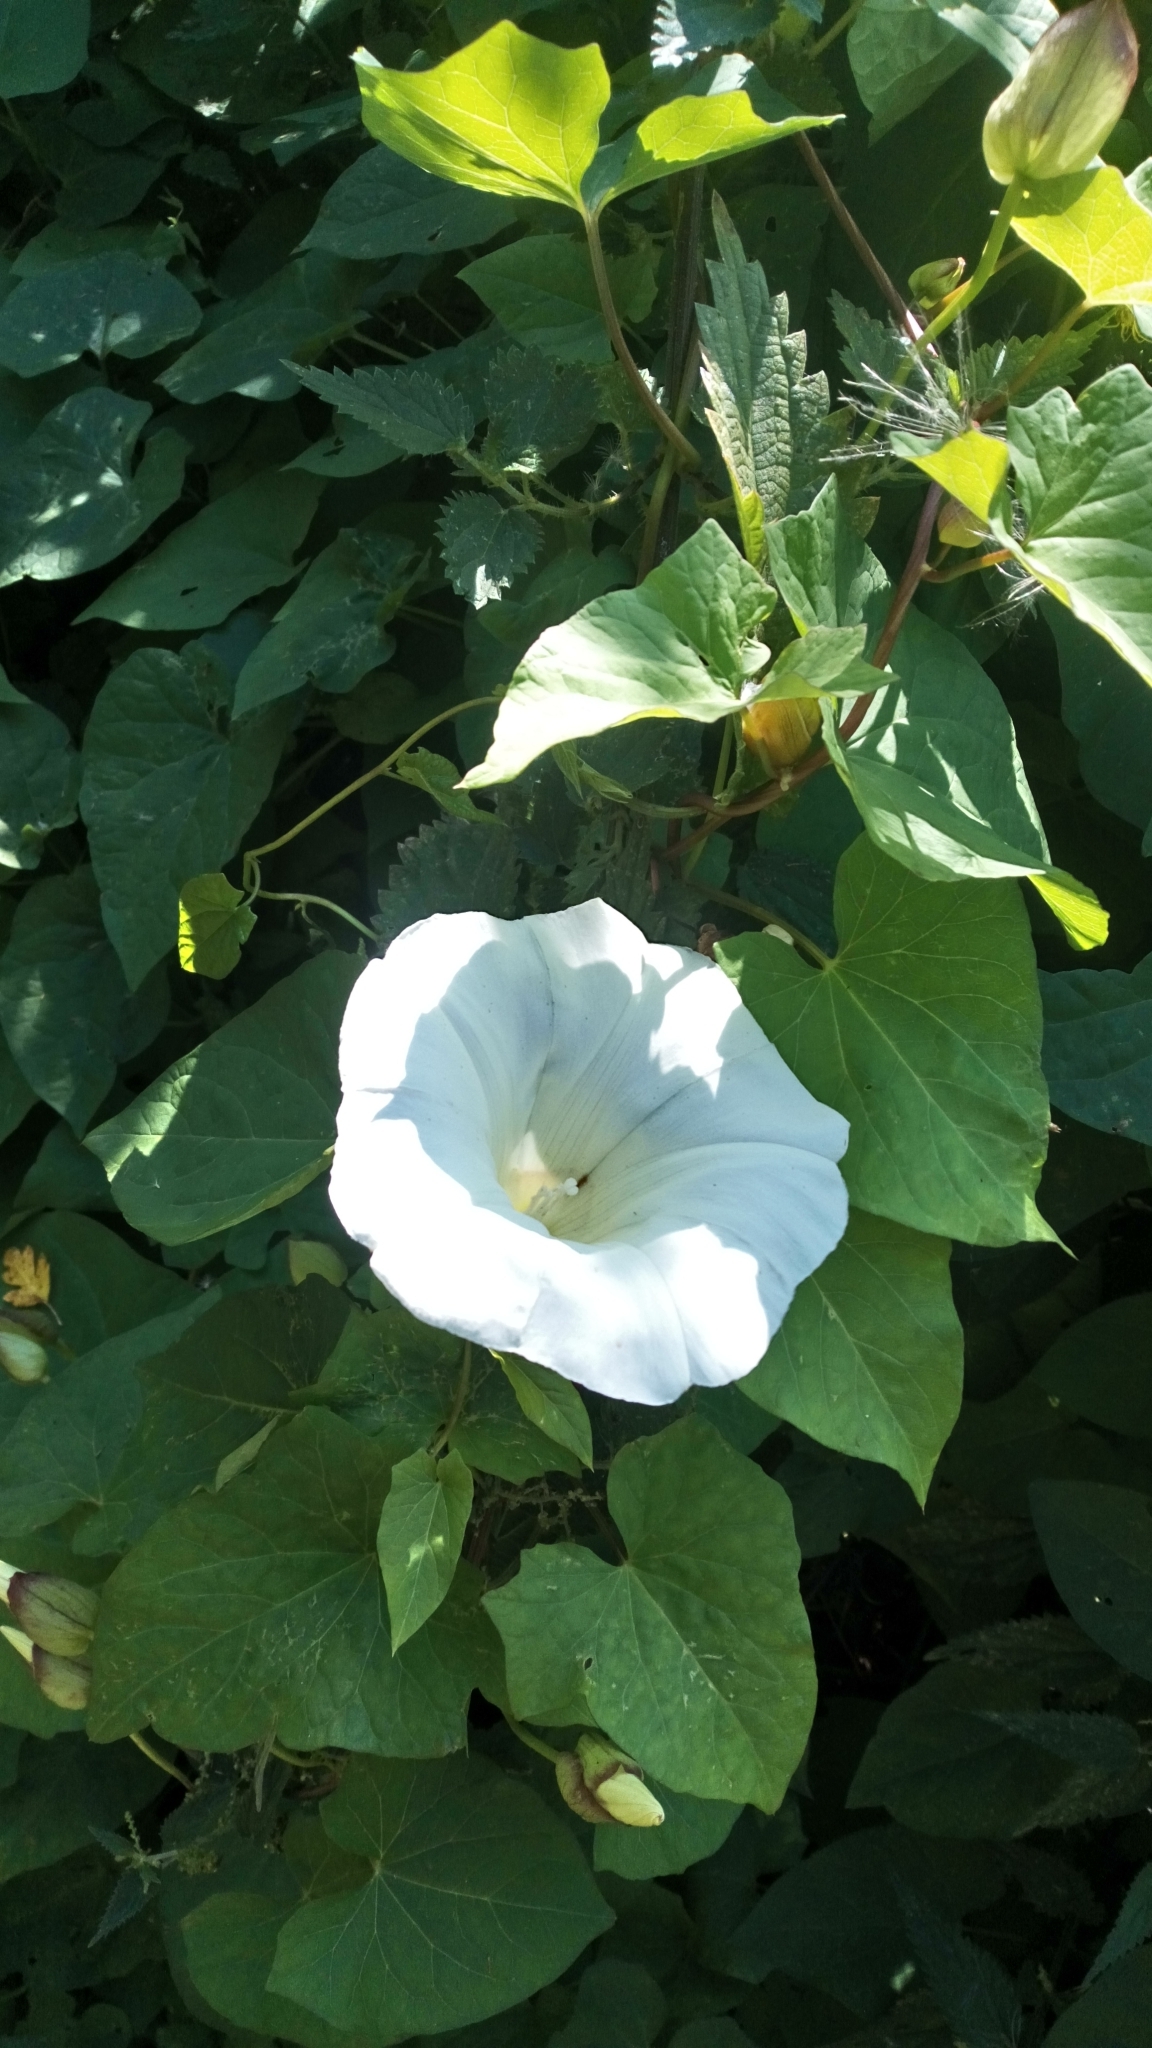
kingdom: Plantae
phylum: Tracheophyta
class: Magnoliopsida
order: Solanales
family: Convolvulaceae
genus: Calystegia
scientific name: Calystegia silvatica
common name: Large bindweed
